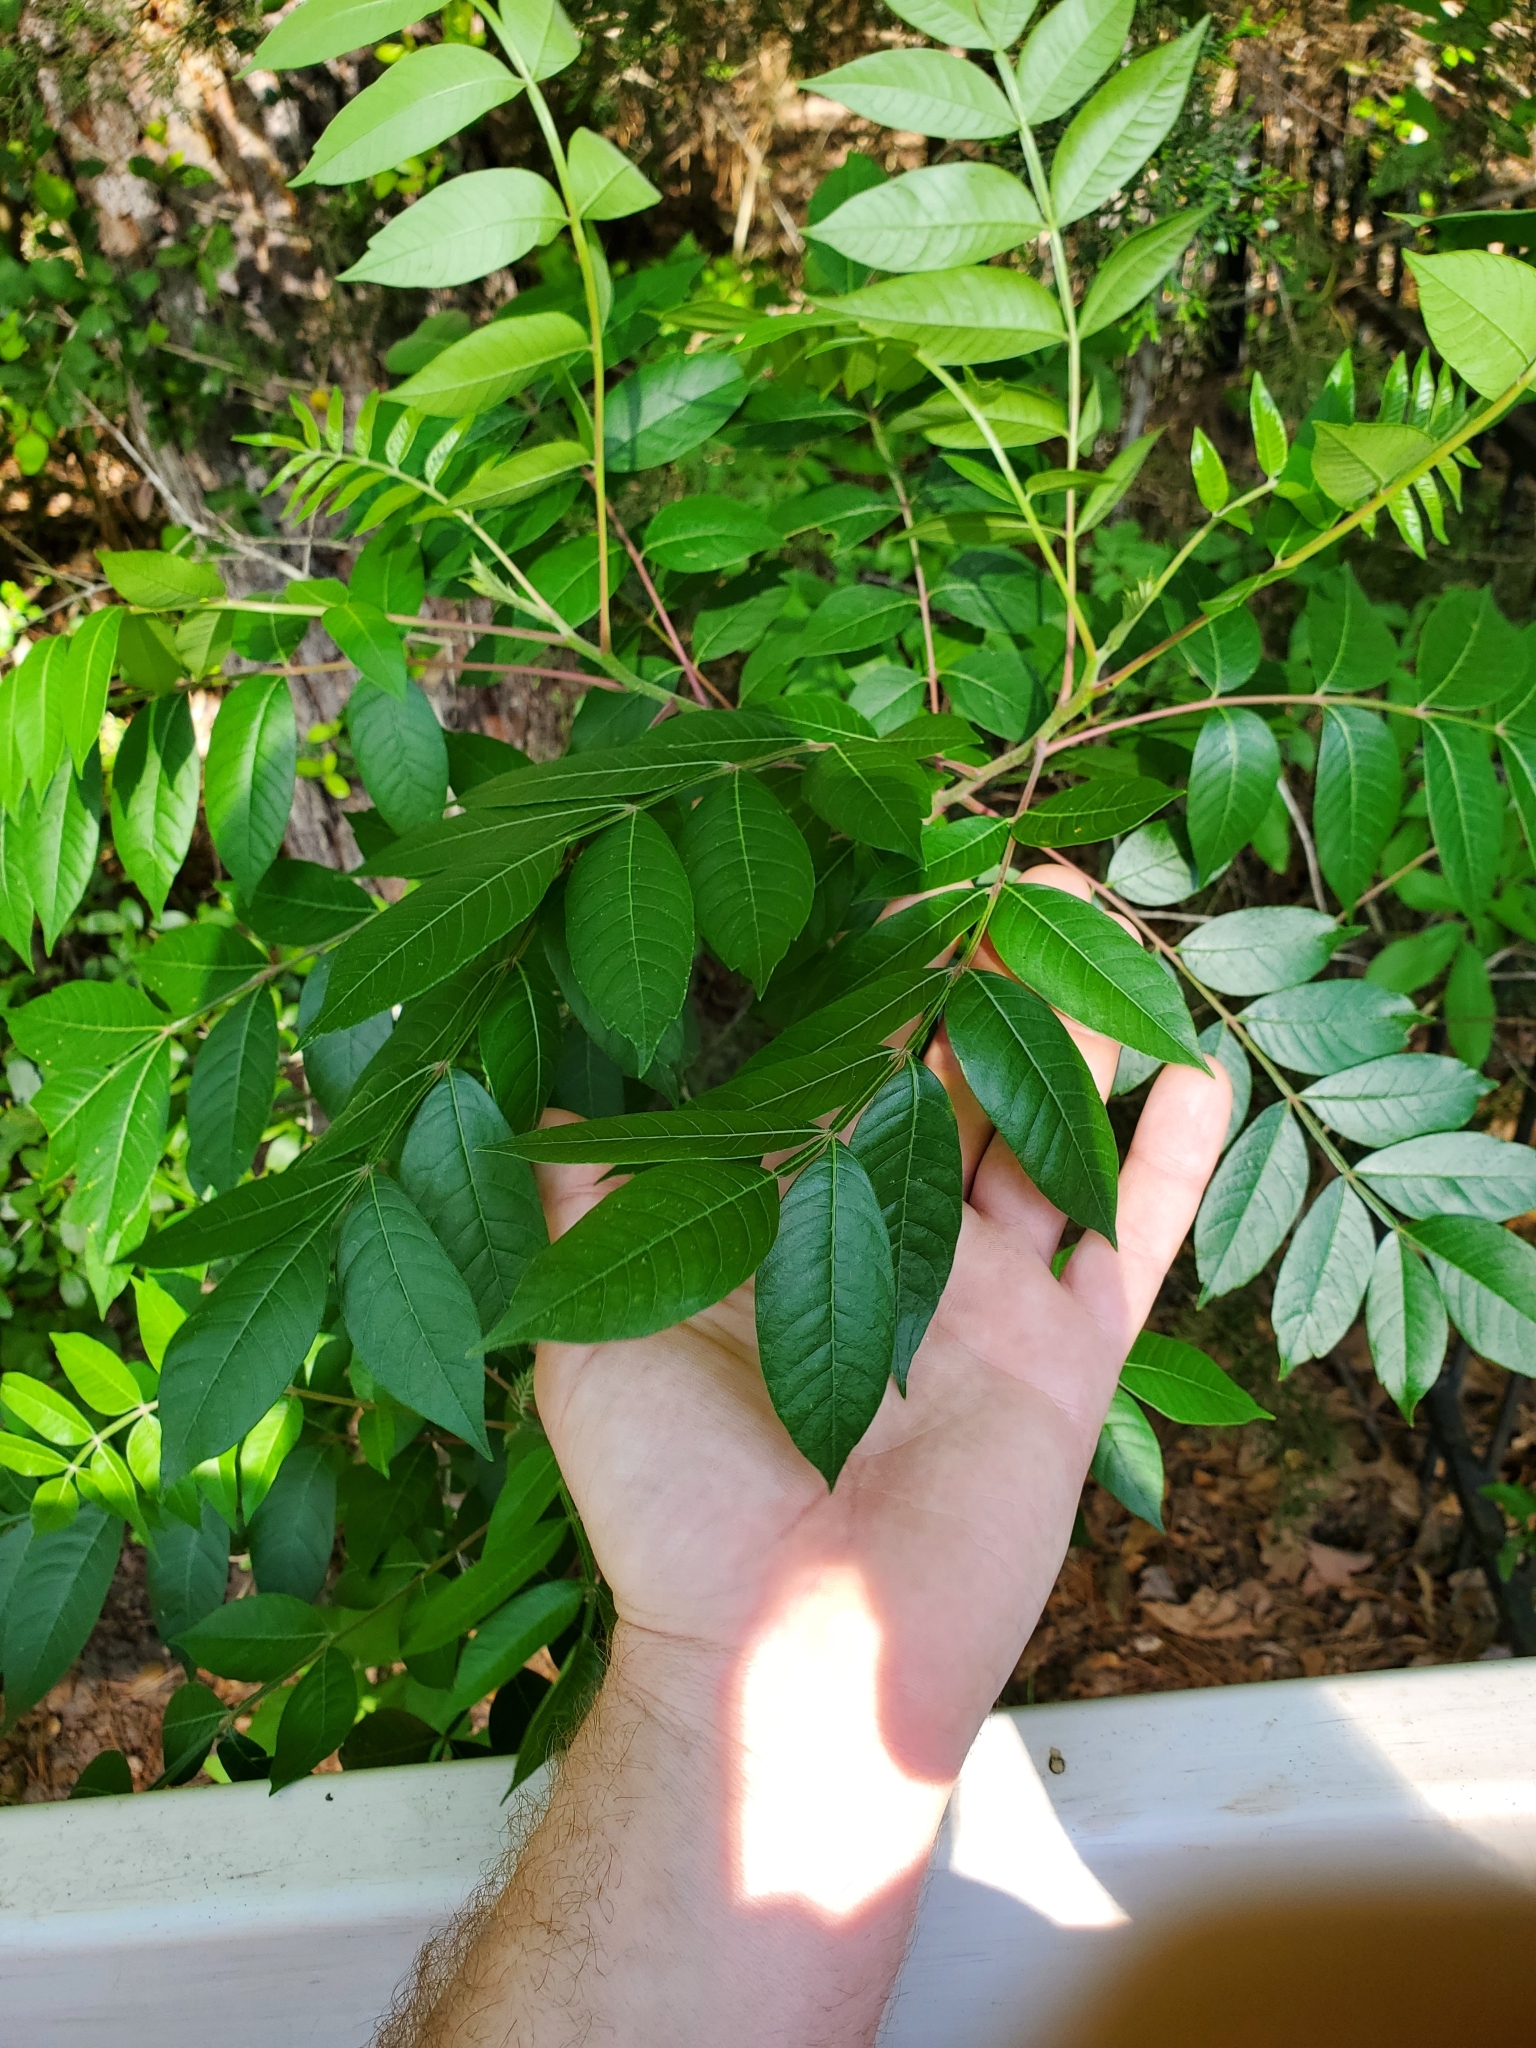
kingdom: Plantae
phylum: Tracheophyta
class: Magnoliopsida
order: Sapindales
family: Anacardiaceae
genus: Rhus
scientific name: Rhus copallina
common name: Shining sumac
